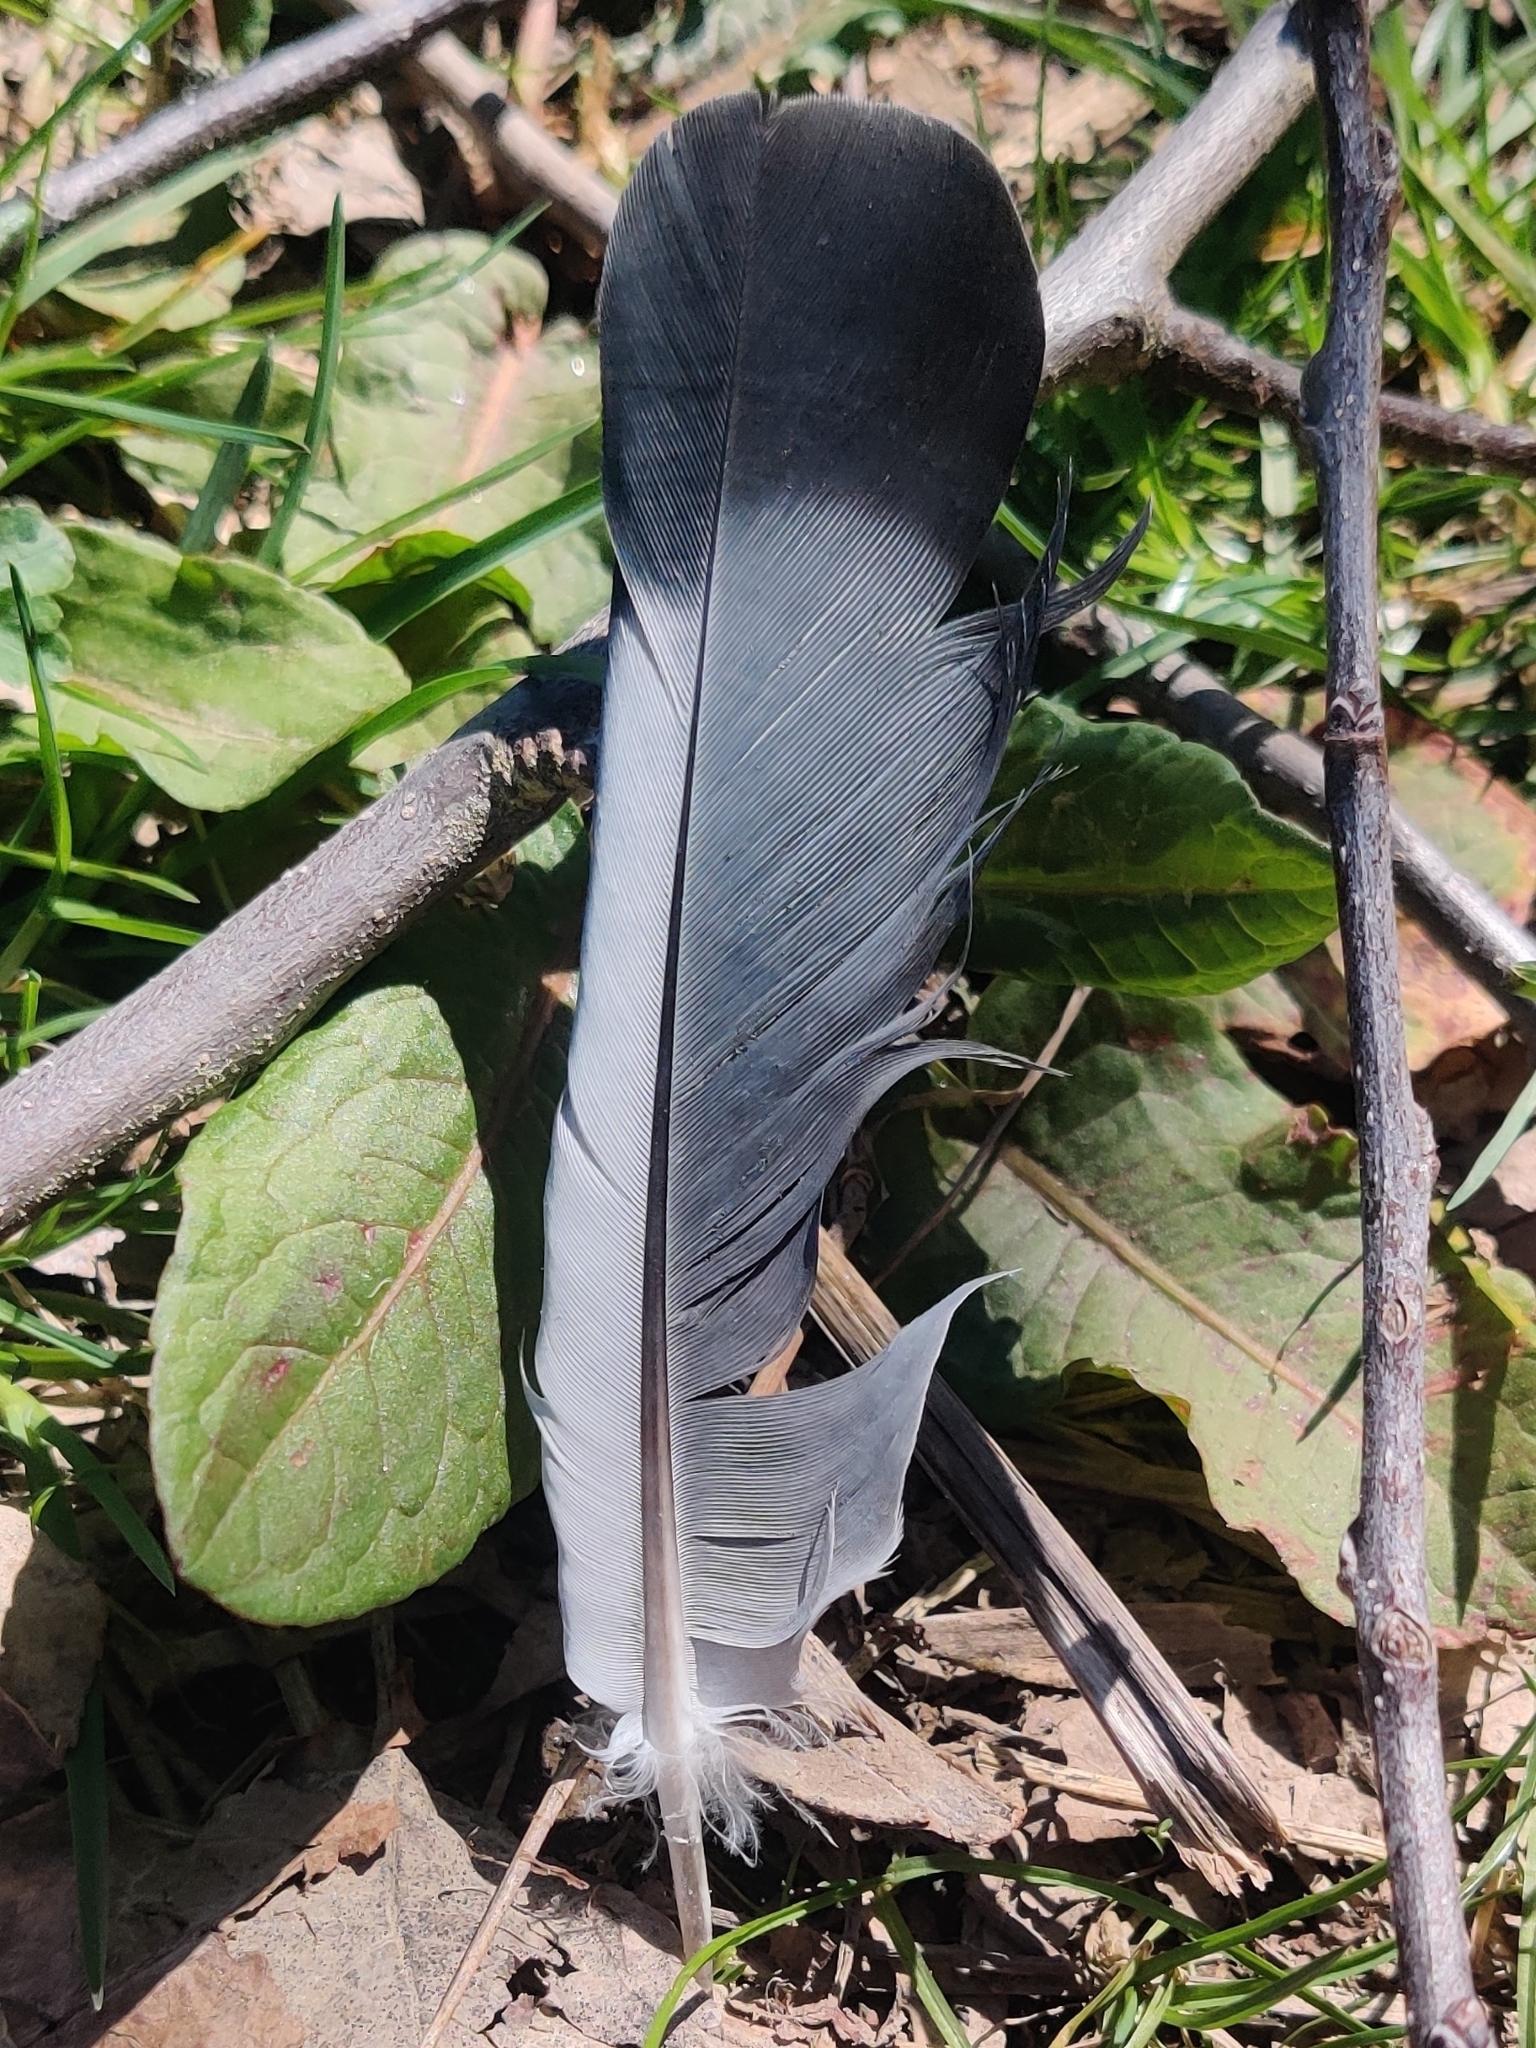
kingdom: Animalia
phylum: Chordata
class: Aves
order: Columbiformes
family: Columbidae
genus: Columba
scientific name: Columba livia
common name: Rock pigeon
